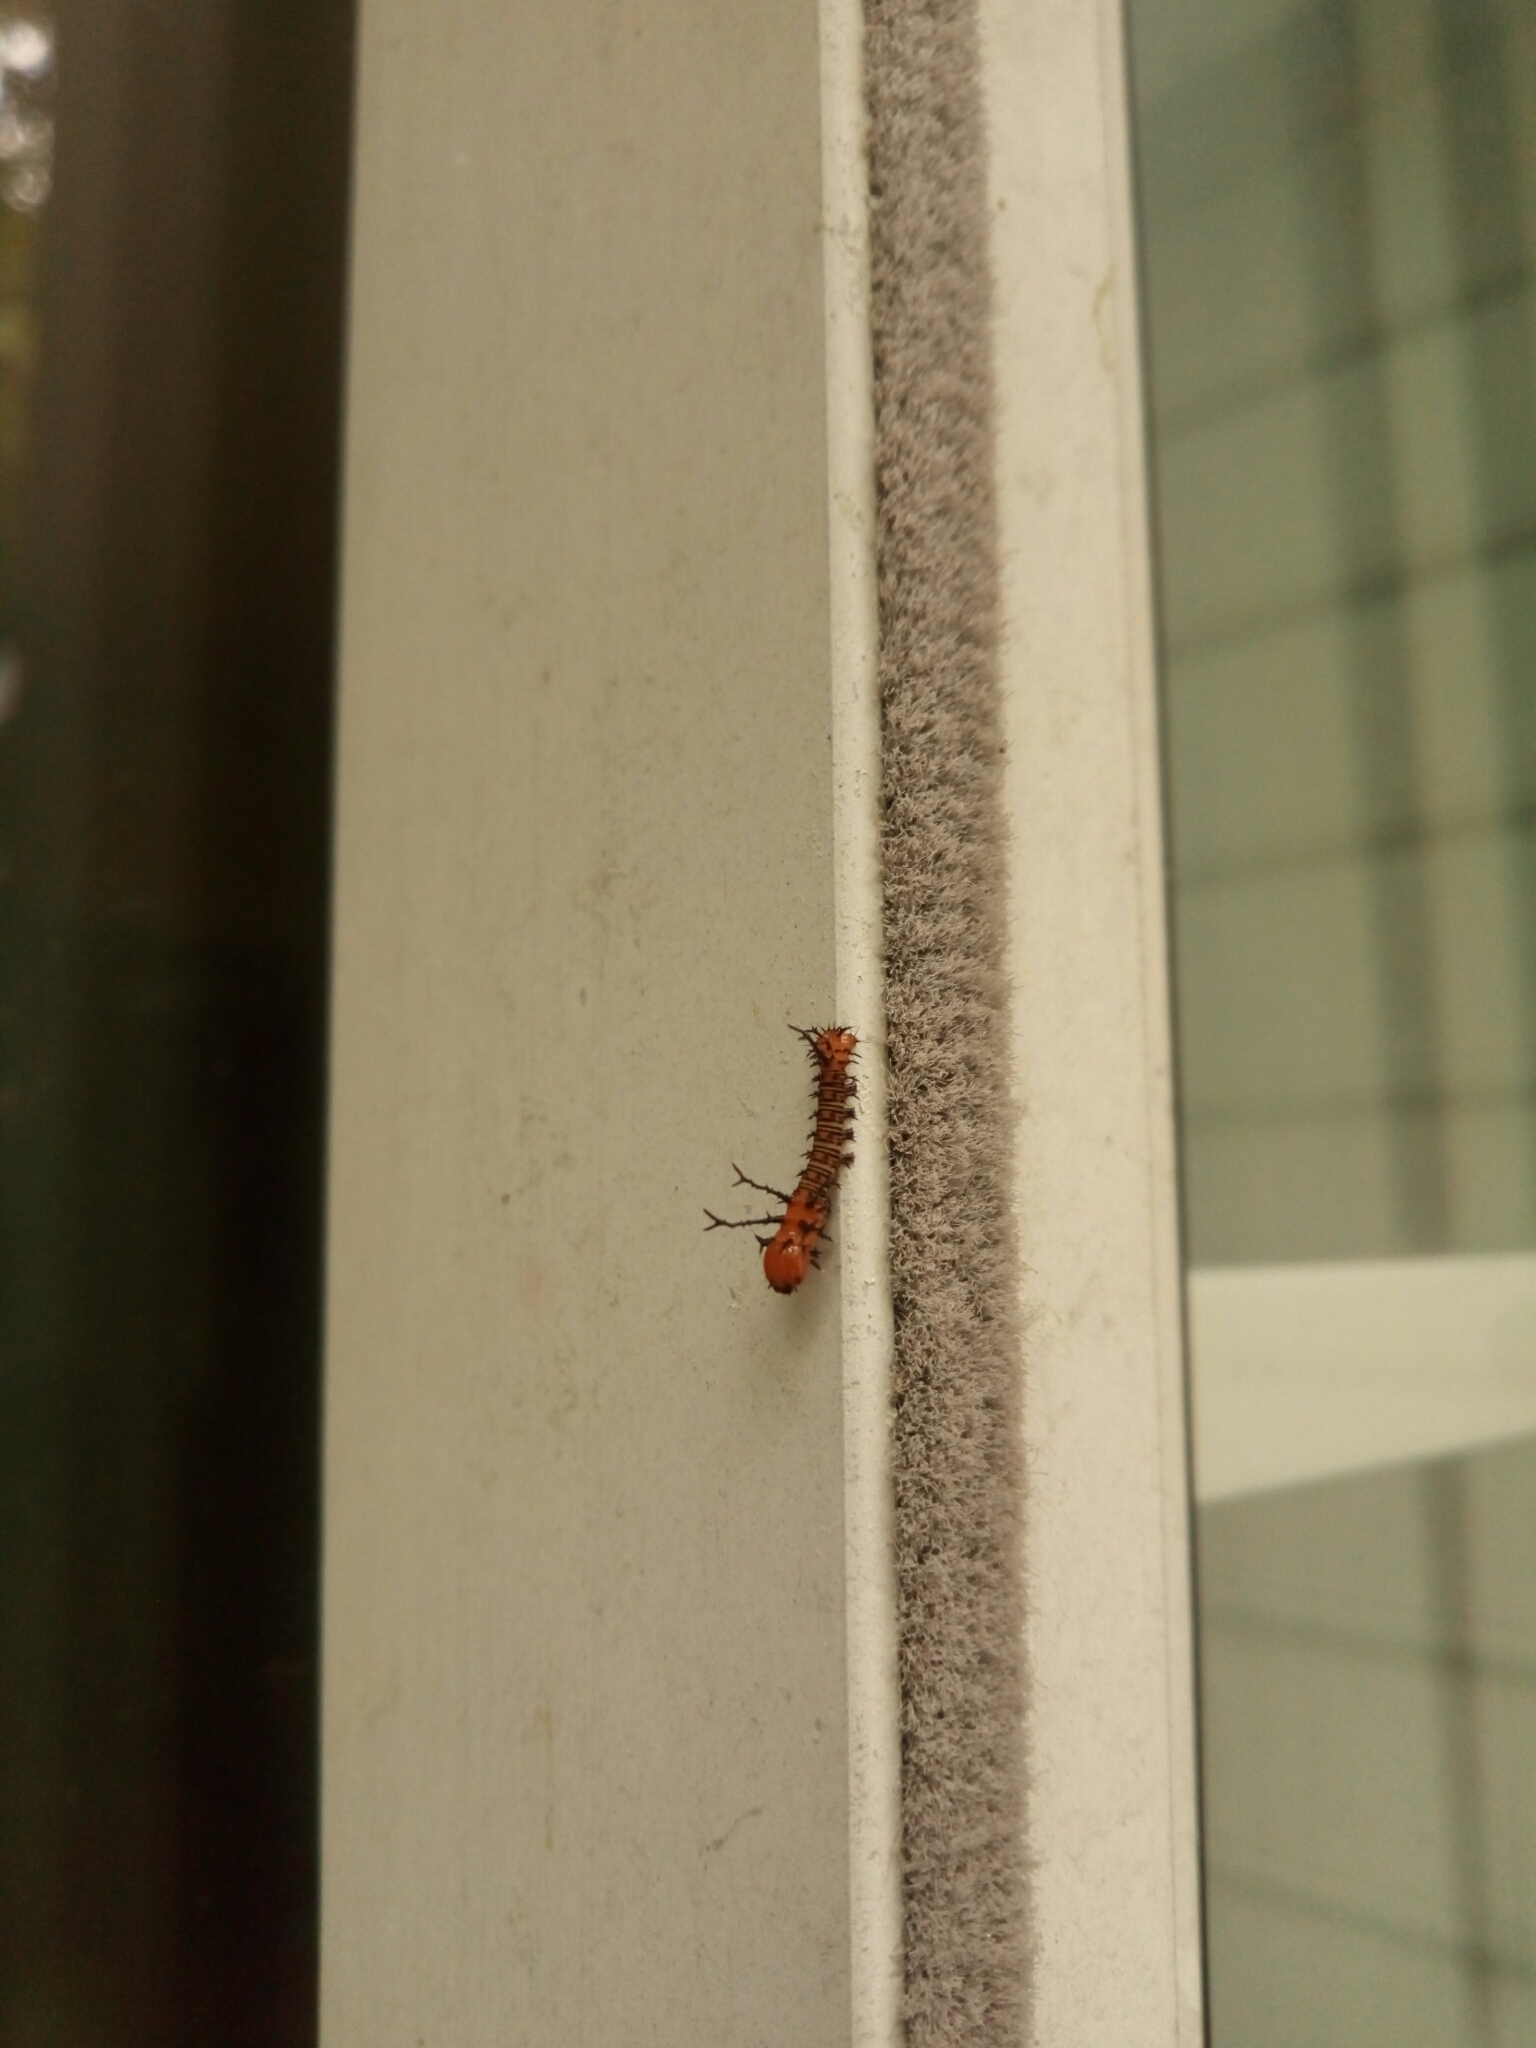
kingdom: Animalia
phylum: Arthropoda
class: Insecta
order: Lepidoptera
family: Saturniidae
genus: Eacles
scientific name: Eacles imperialis
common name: Imperial moth
